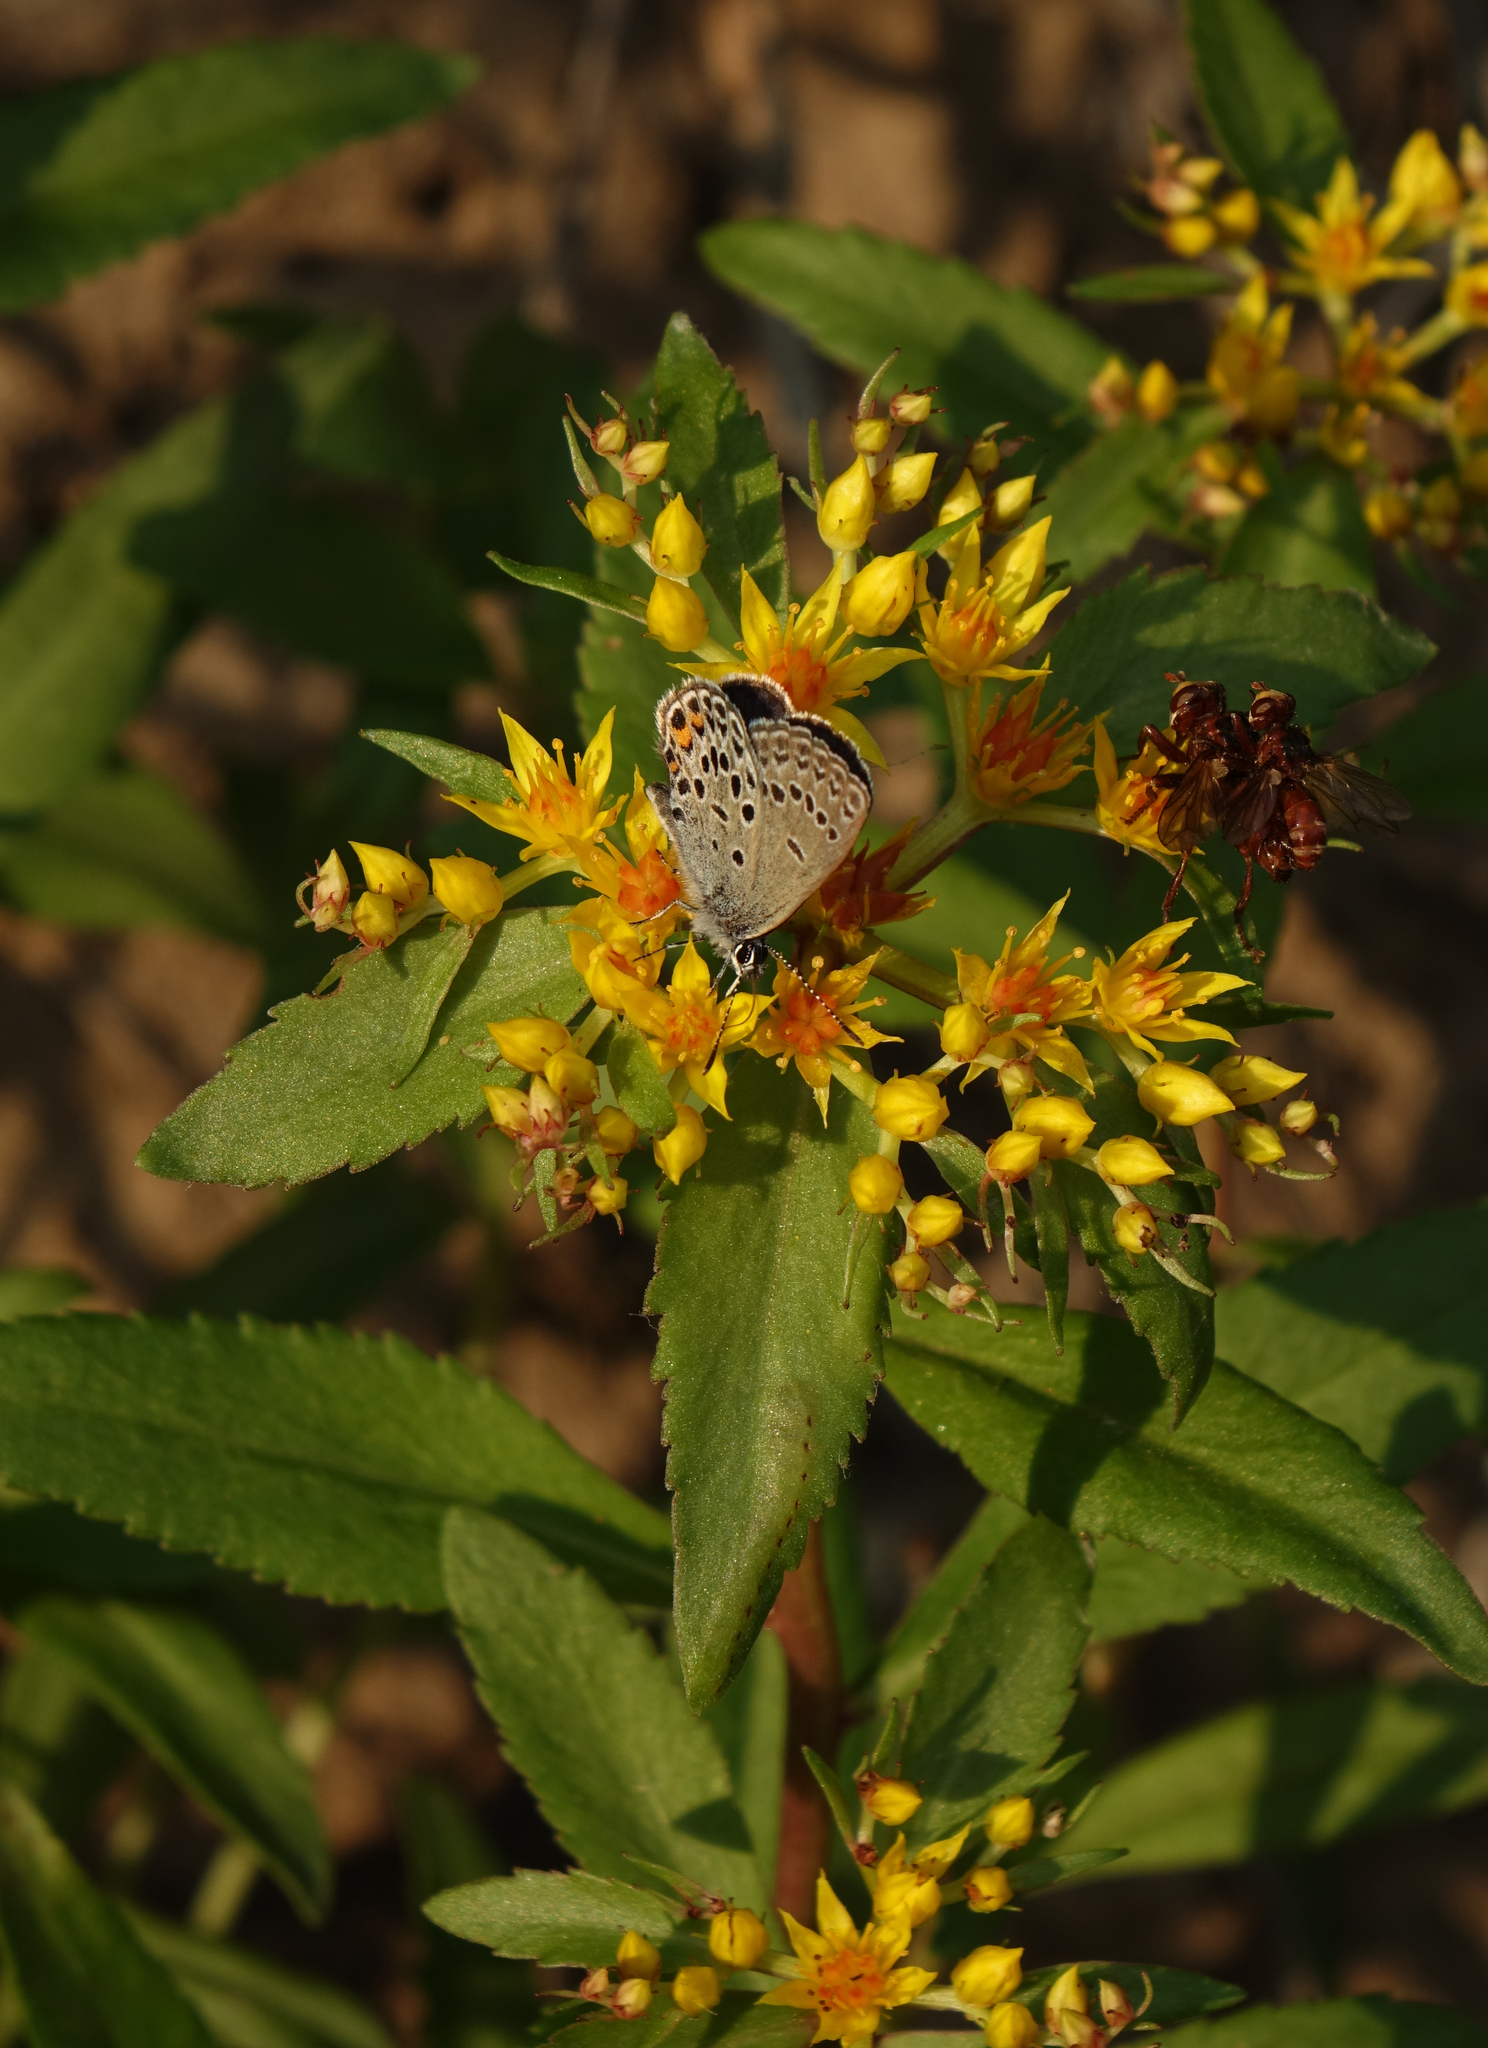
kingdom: Plantae
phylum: Tracheophyta
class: Magnoliopsida
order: Saxifragales
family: Crassulaceae
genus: Phedimus
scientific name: Phedimus aizoon
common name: Orpin aizoon
